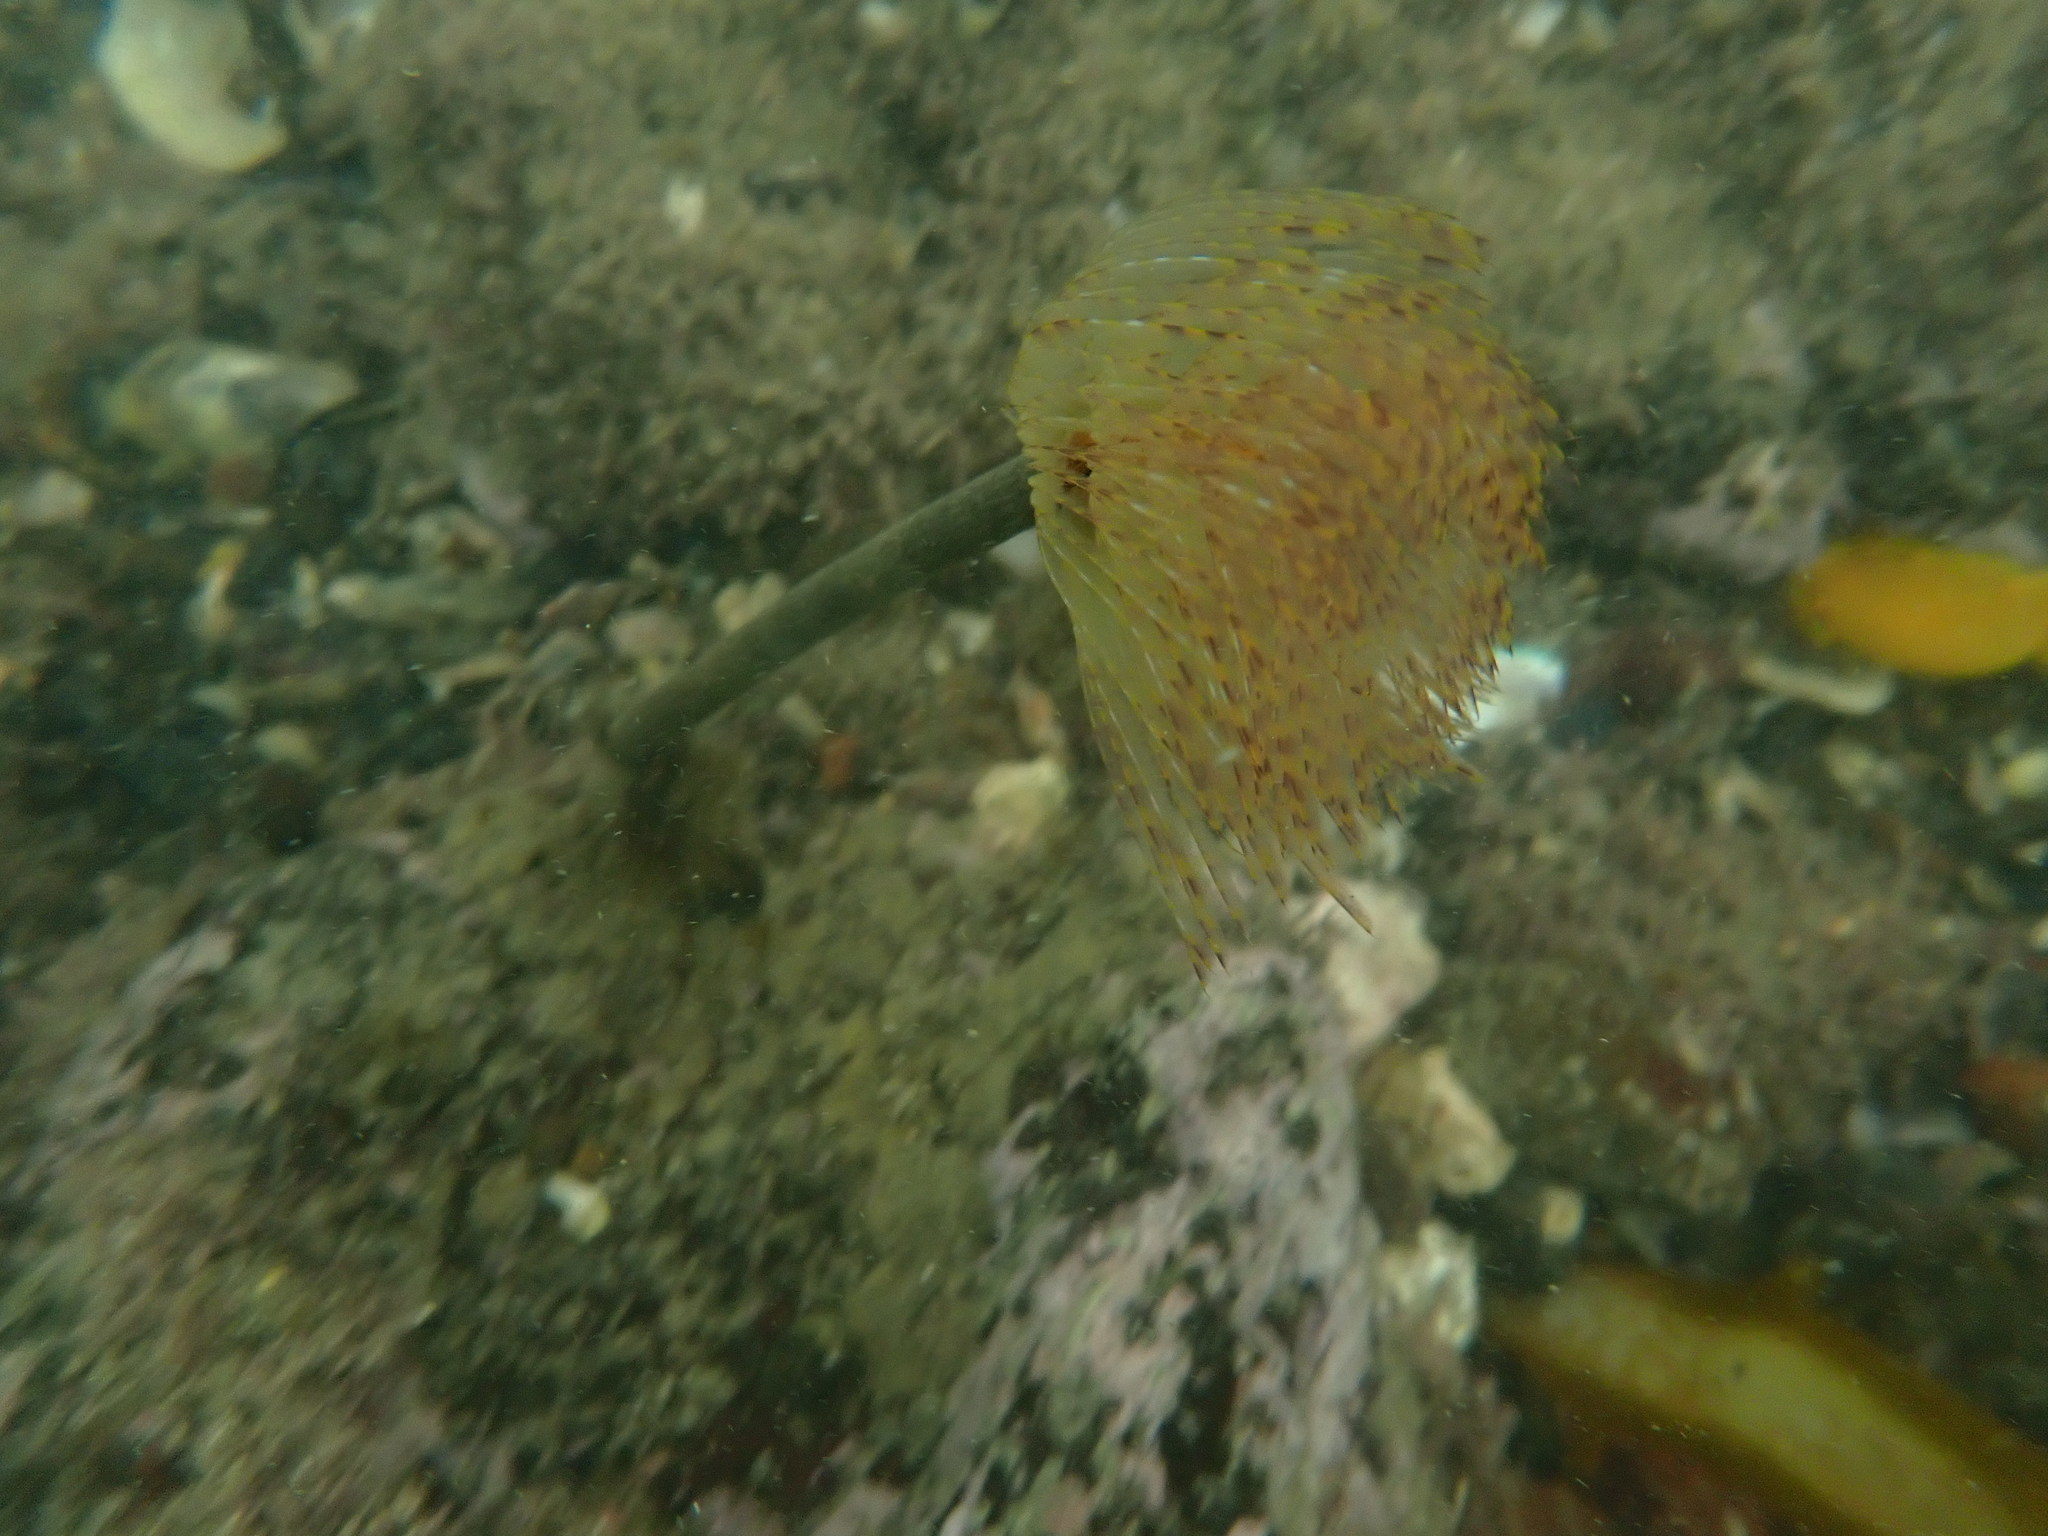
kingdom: Animalia
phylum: Annelida
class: Polychaeta
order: Sabellida
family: Sabellidae
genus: Sabella
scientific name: Sabella spallanzanii
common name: Feather duster worm
